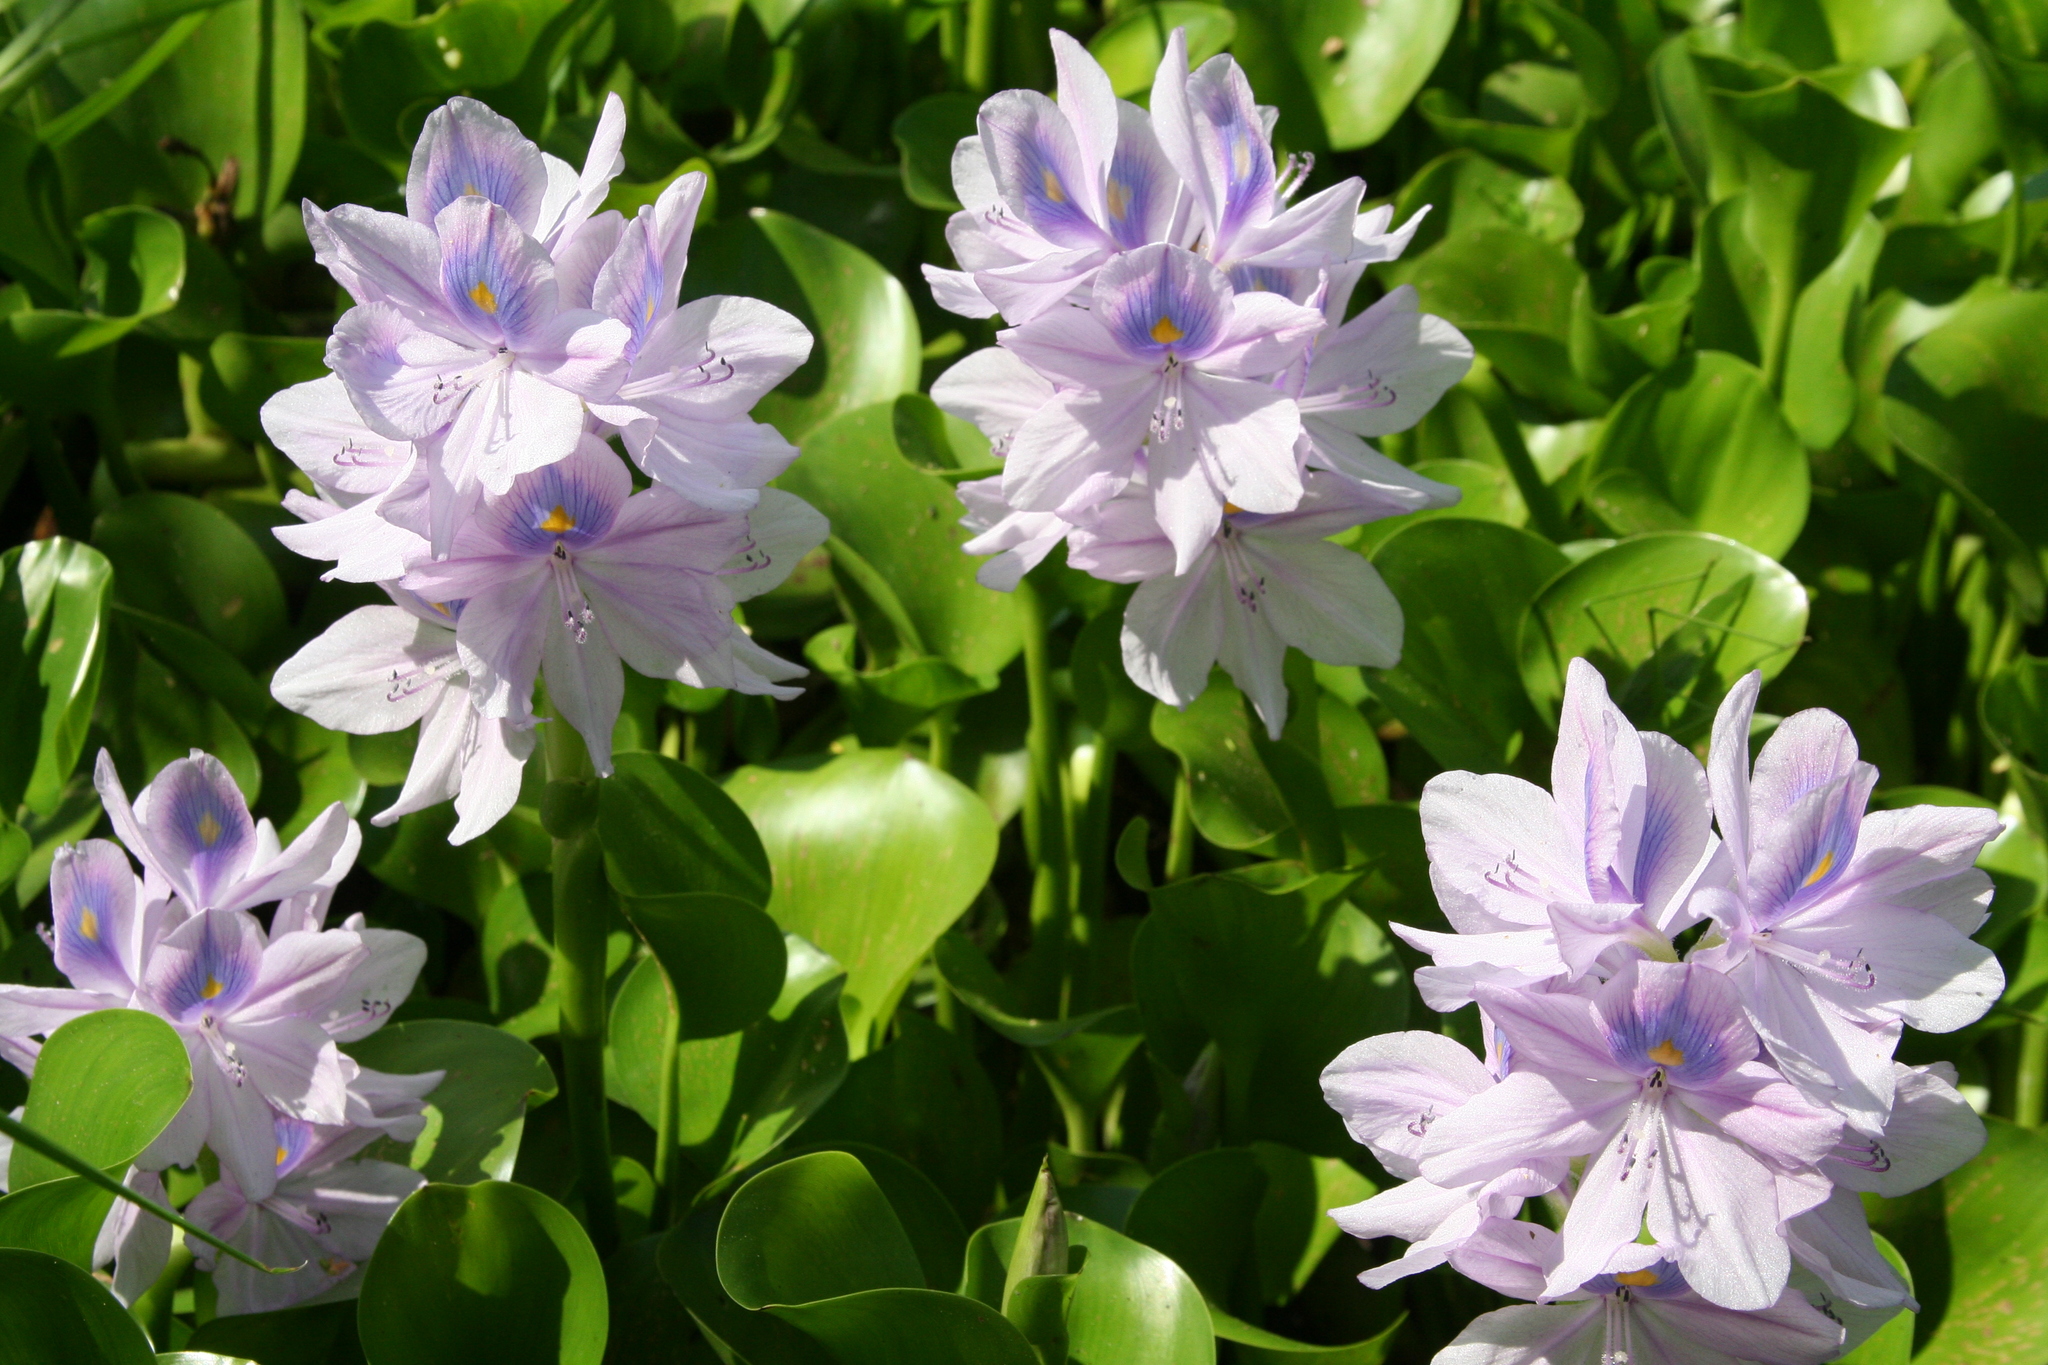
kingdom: Plantae
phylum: Tracheophyta
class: Liliopsida
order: Commelinales
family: Pontederiaceae
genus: Pontederia
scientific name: Pontederia crassipes
